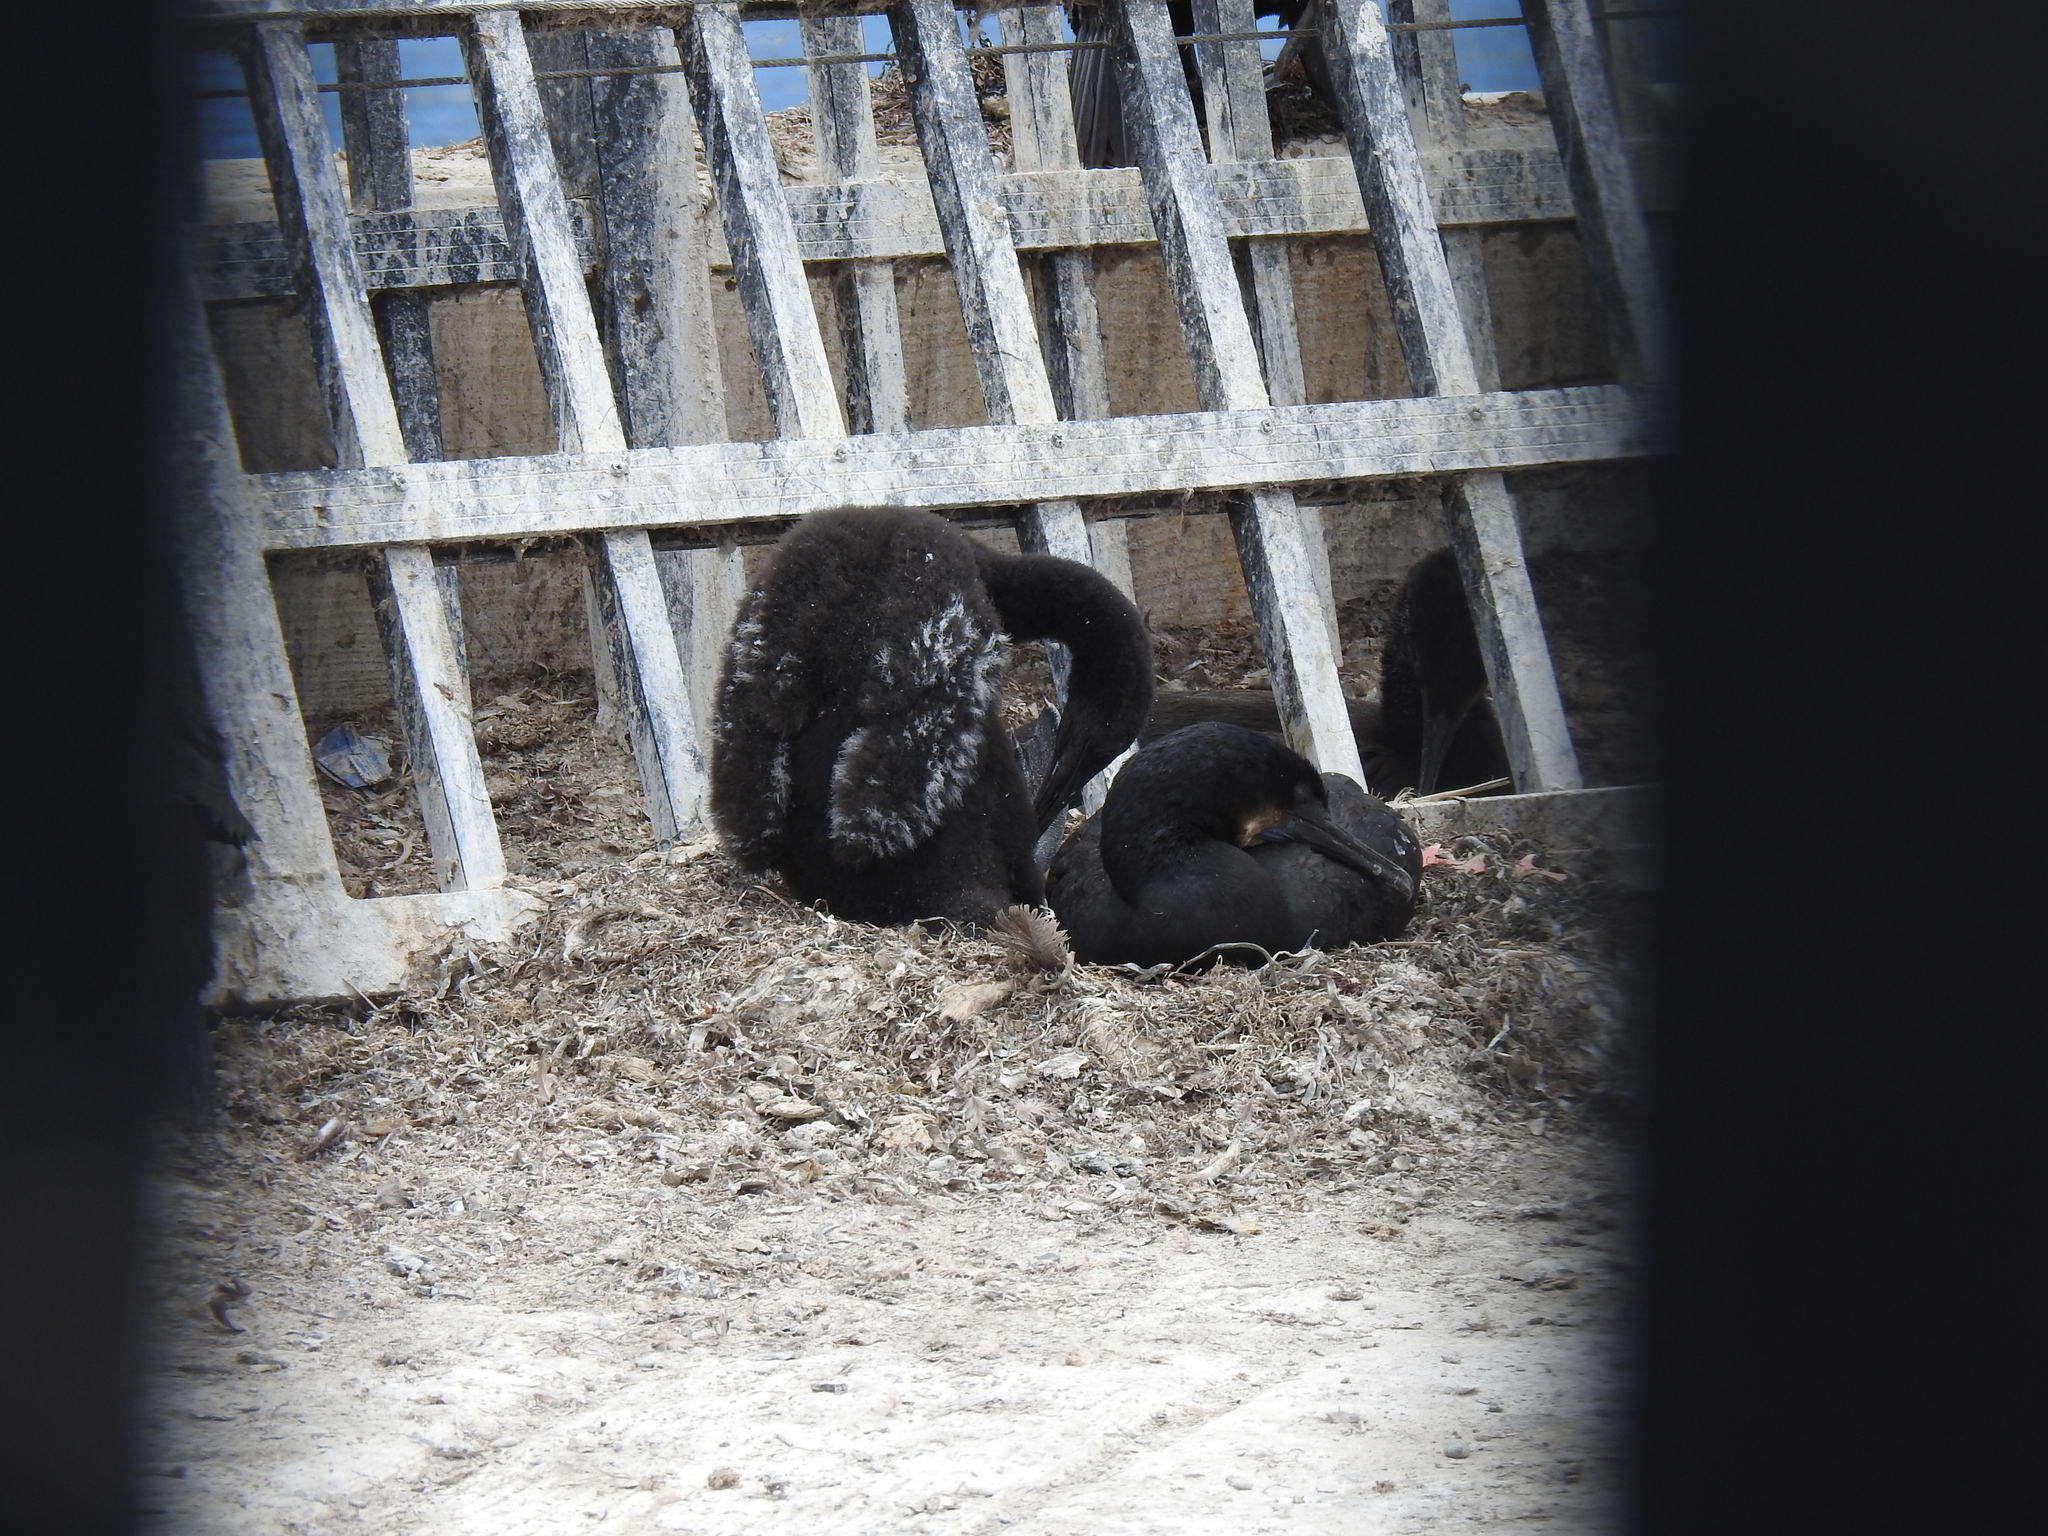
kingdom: Animalia
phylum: Chordata
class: Aves
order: Suliformes
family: Phalacrocoracidae
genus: Urile
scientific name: Urile penicillatus
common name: Brandt's cormorant
